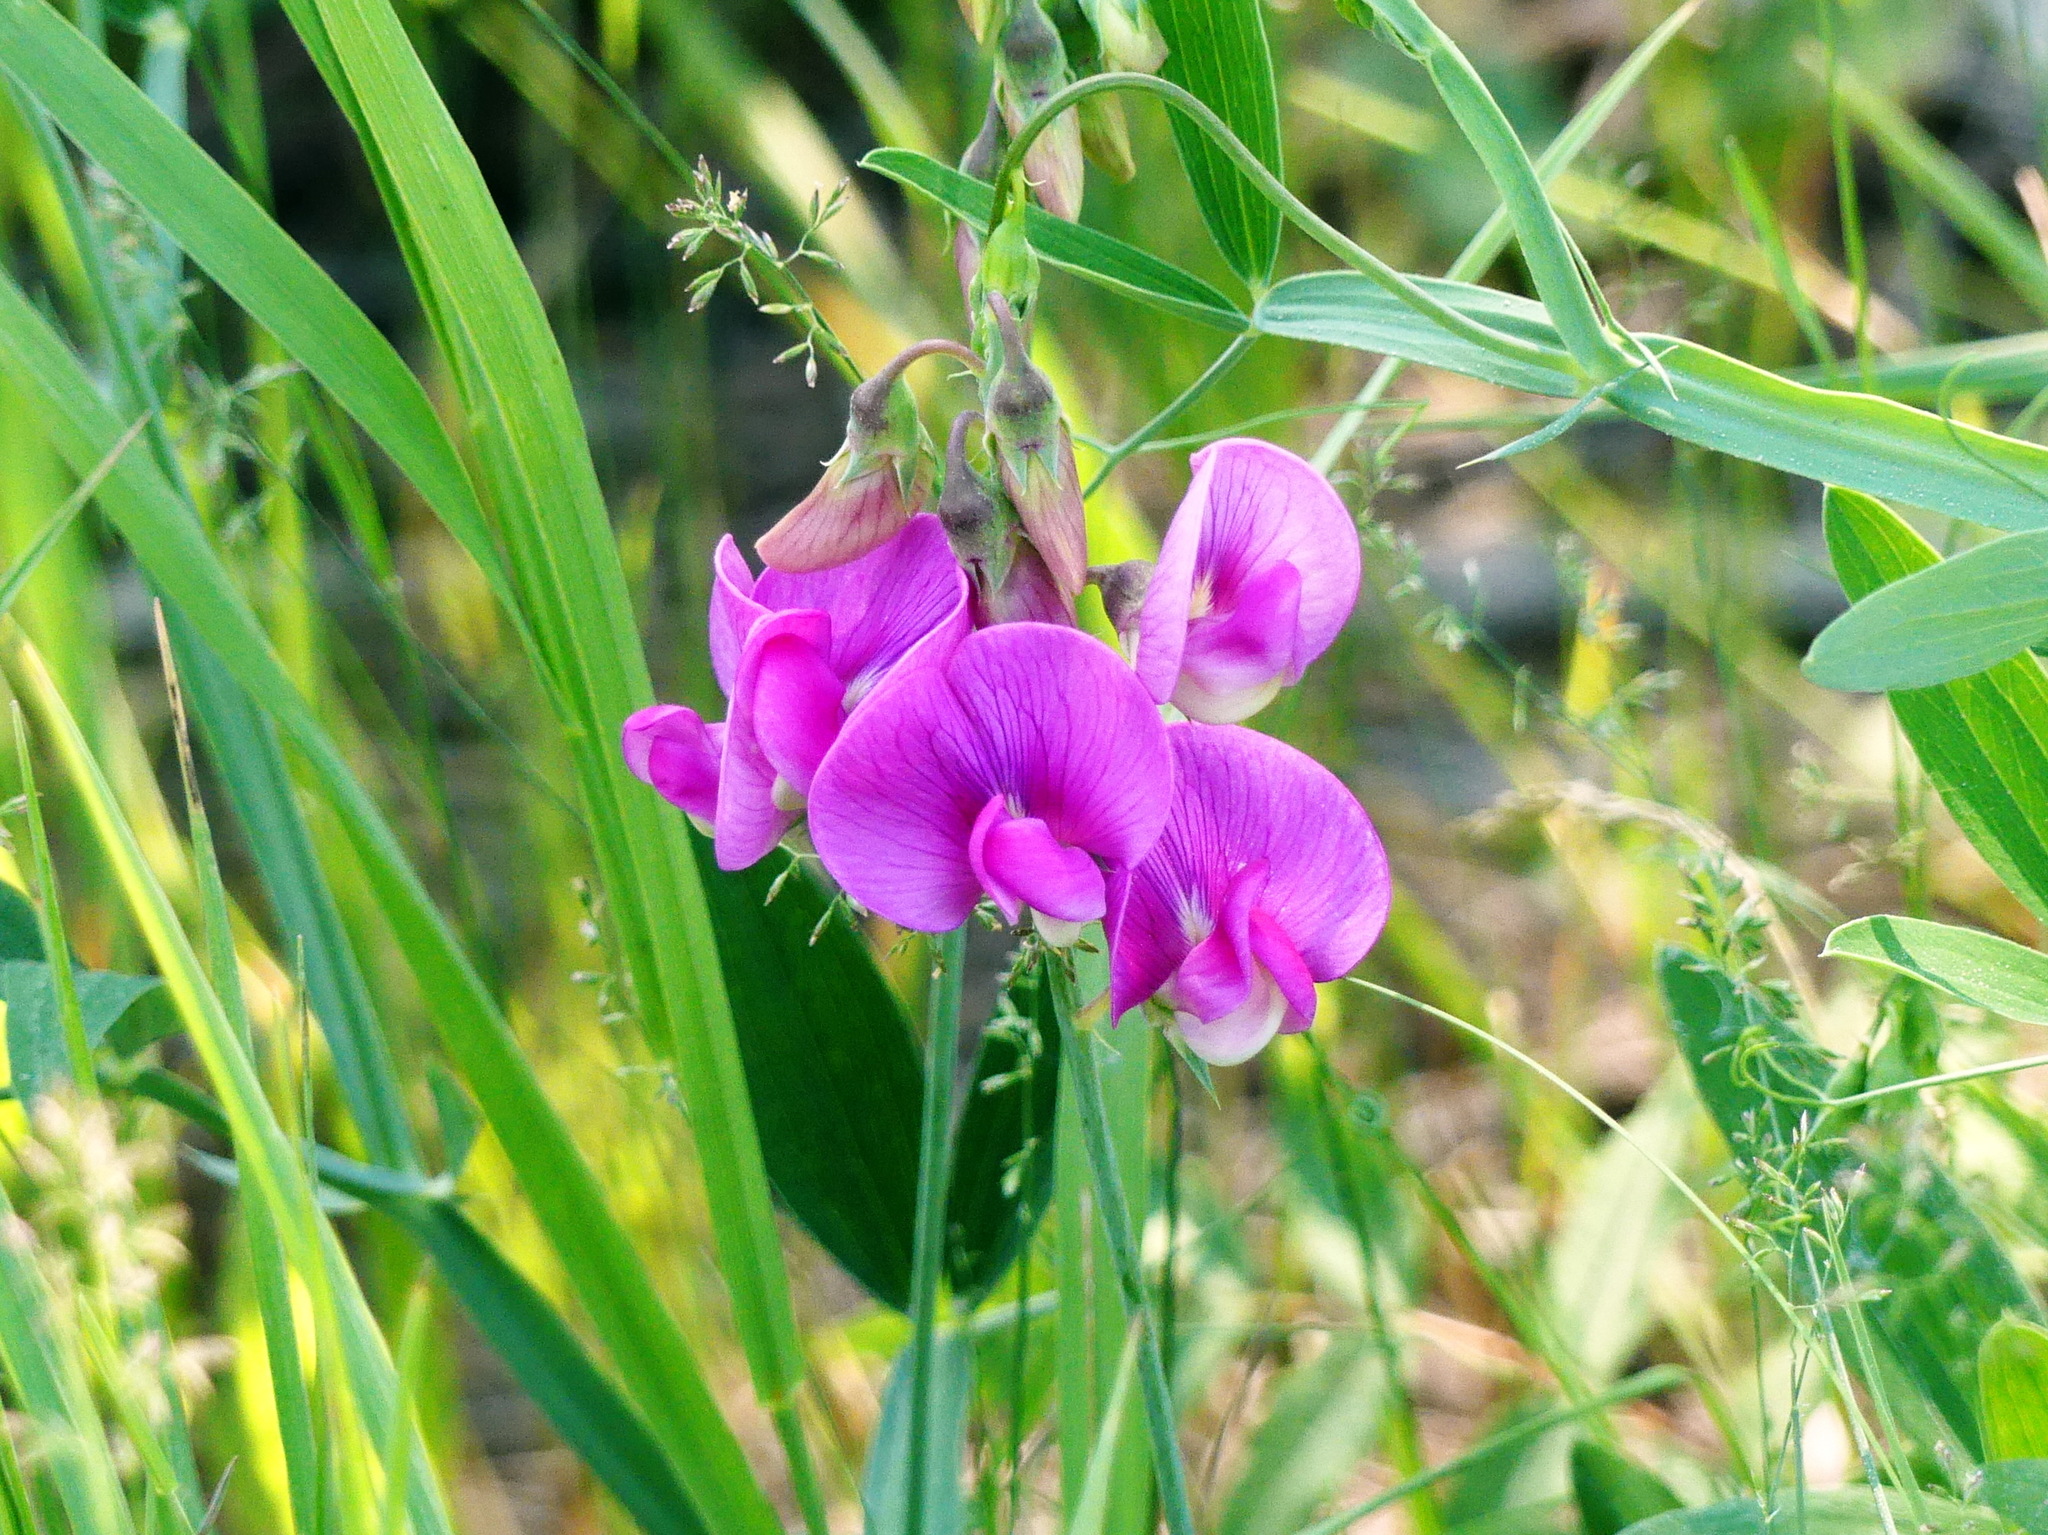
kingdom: Plantae
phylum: Tracheophyta
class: Magnoliopsida
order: Fabales
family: Fabaceae
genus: Lathyrus
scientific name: Lathyrus latifolius
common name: Perennial pea
